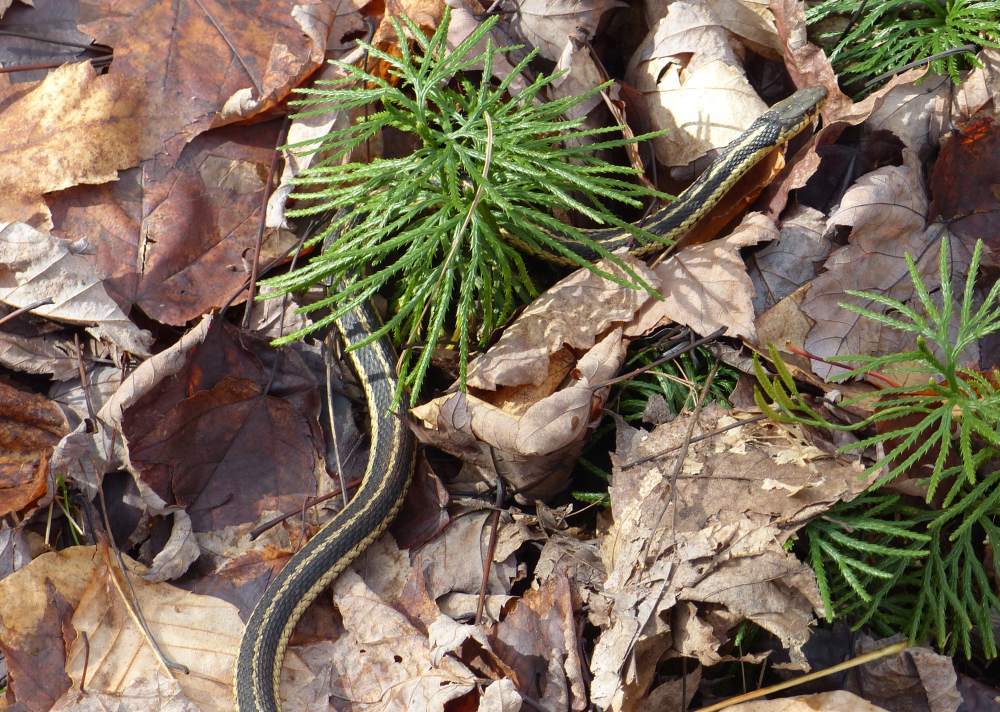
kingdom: Animalia
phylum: Chordata
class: Squamata
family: Colubridae
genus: Thamnophis
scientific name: Thamnophis sirtalis
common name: Common garter snake
